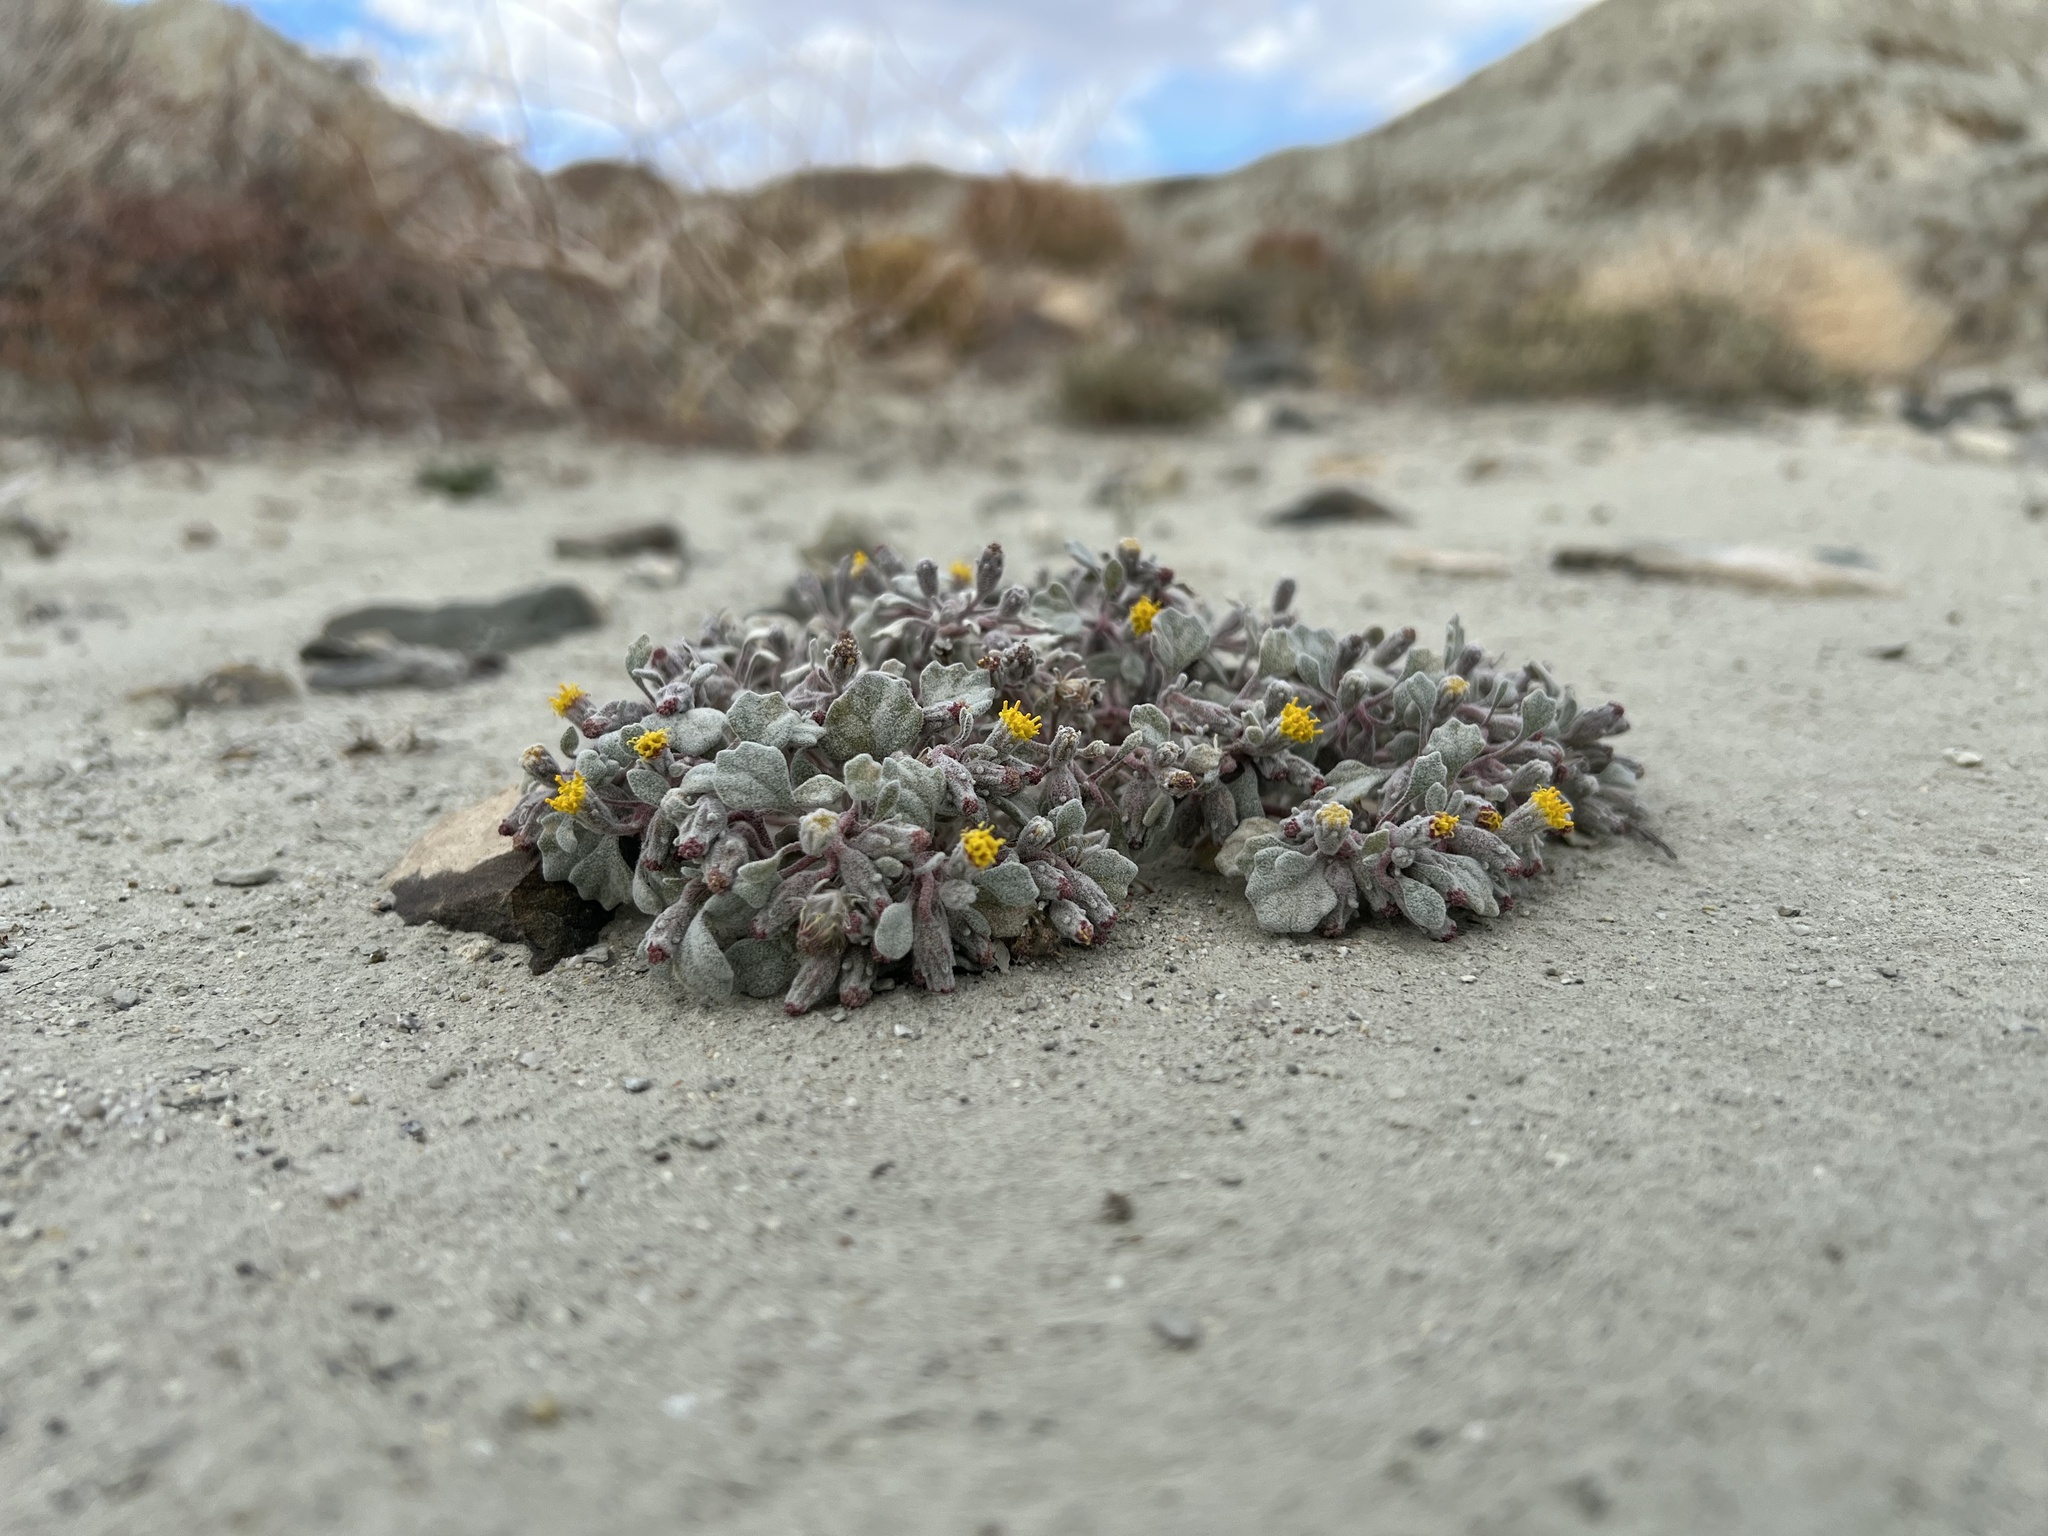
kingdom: Plantae
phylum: Tracheophyta
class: Magnoliopsida
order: Asterales
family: Asteraceae
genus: Psathyrotes
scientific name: Psathyrotes annua
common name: Mealy rosettes
